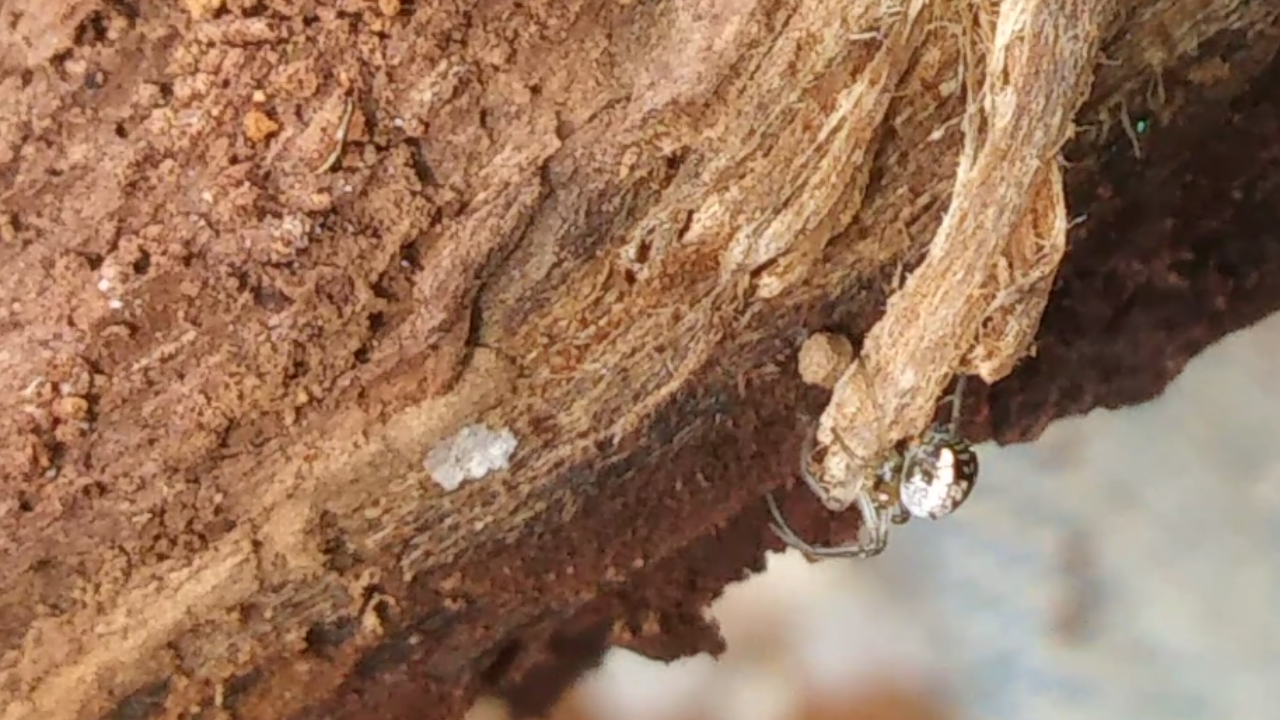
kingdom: Animalia
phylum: Arthropoda
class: Arachnida
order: Araneae
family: Tetragnathidae
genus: Leucauge
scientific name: Leucauge venusta
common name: Longjawed orb weavers
